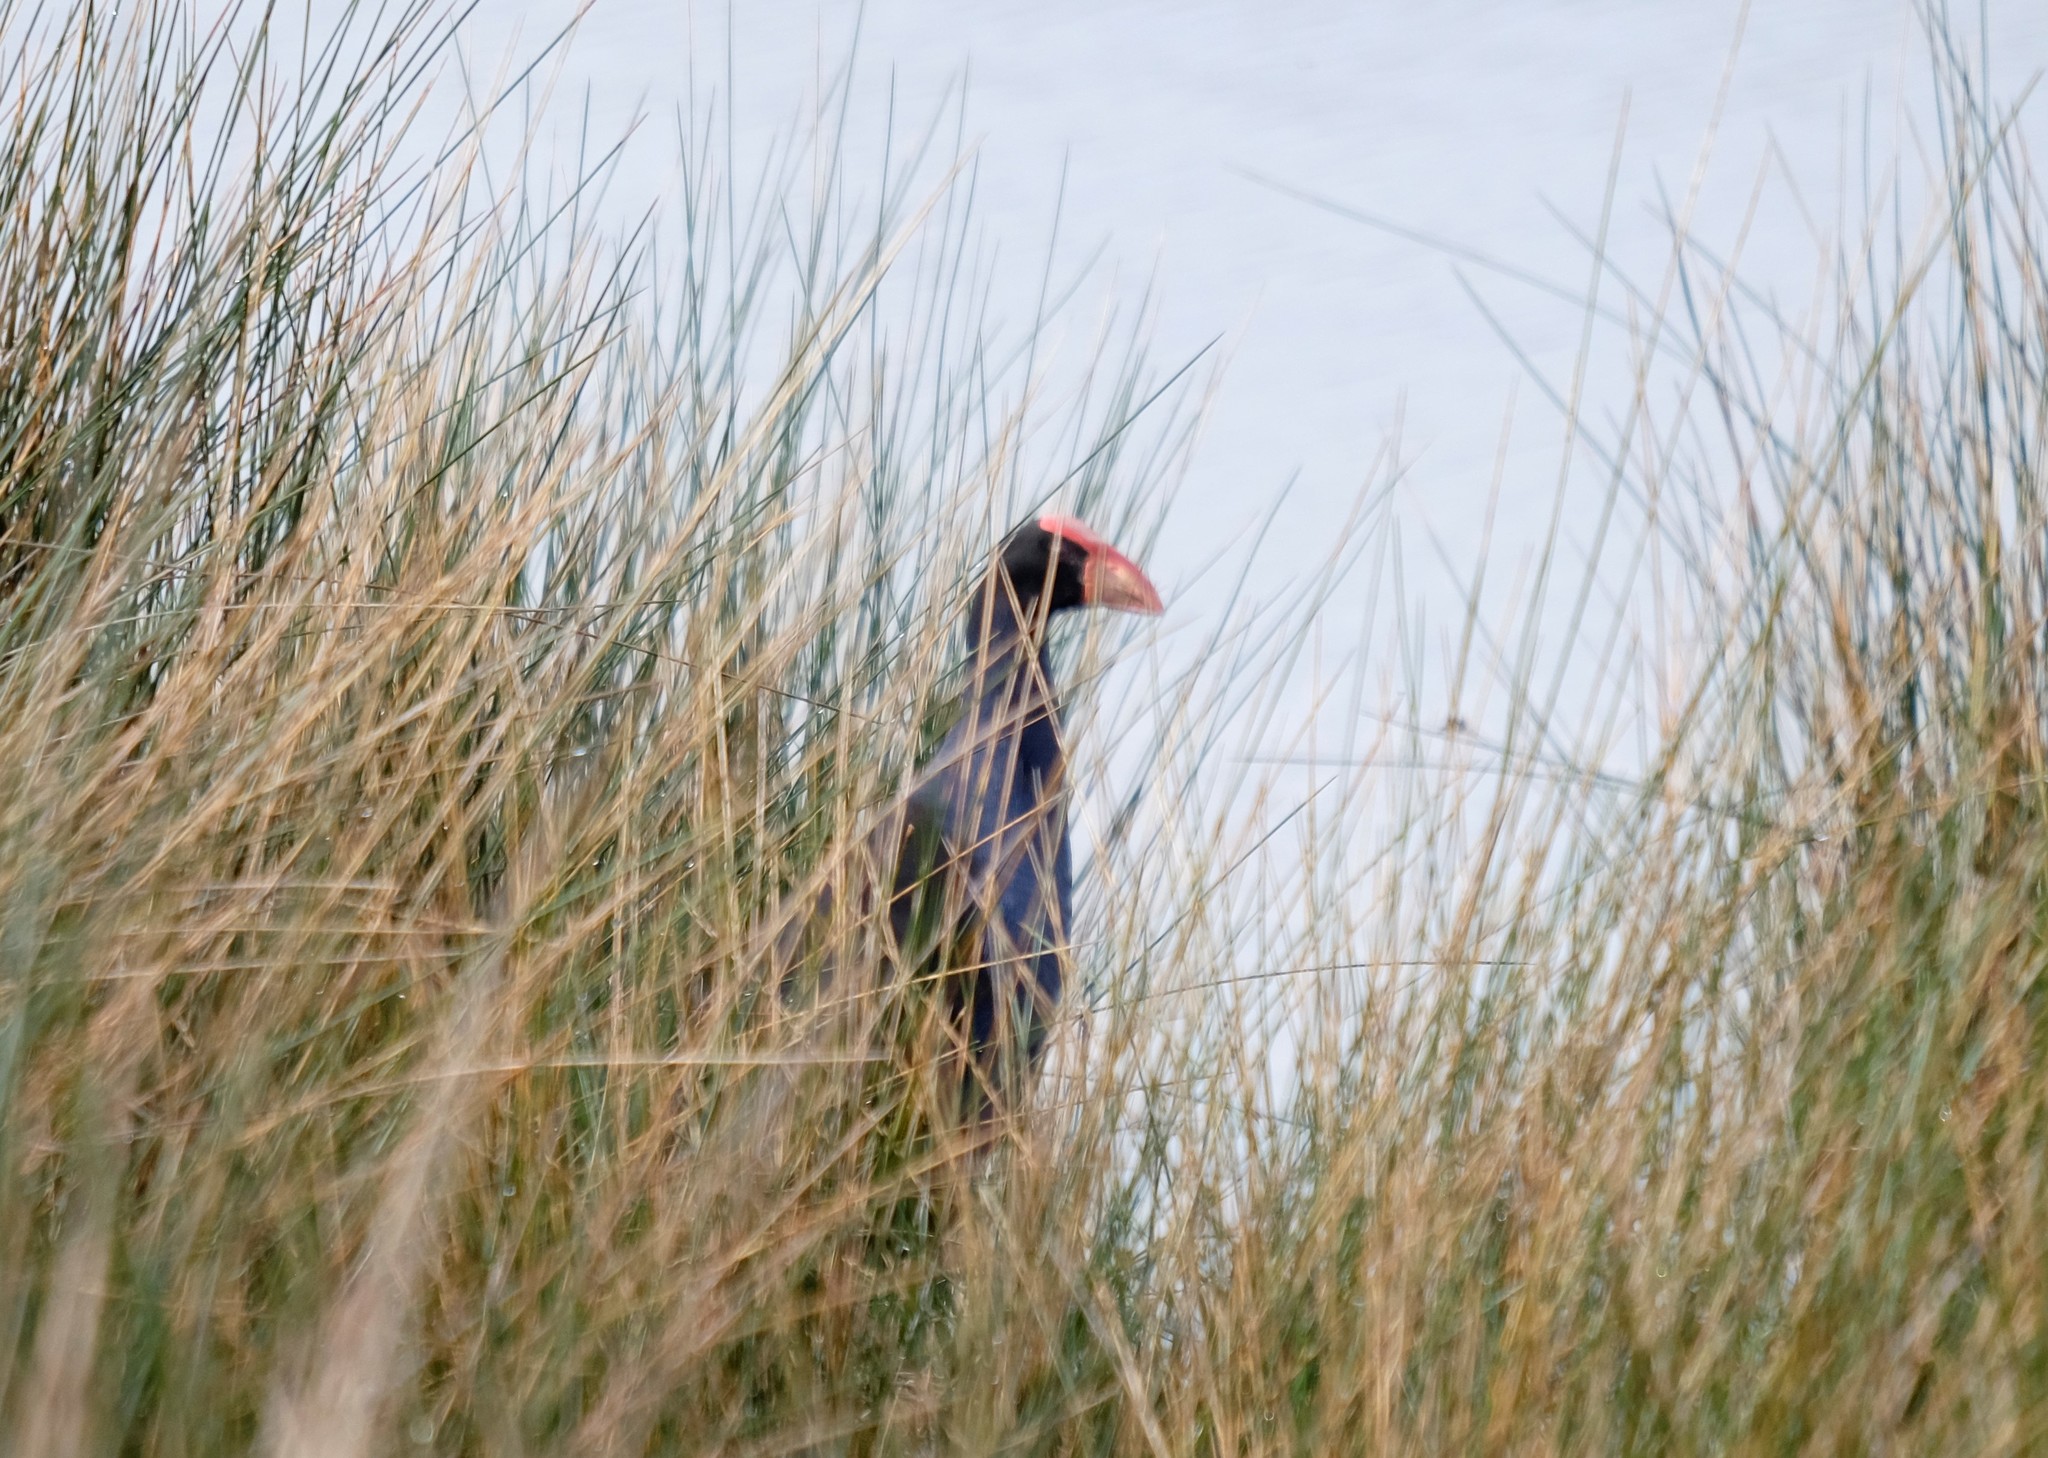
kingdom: Animalia
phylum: Chordata
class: Aves
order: Gruiformes
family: Rallidae
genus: Porphyrio
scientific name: Porphyrio melanotus
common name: Australasian swamphen
